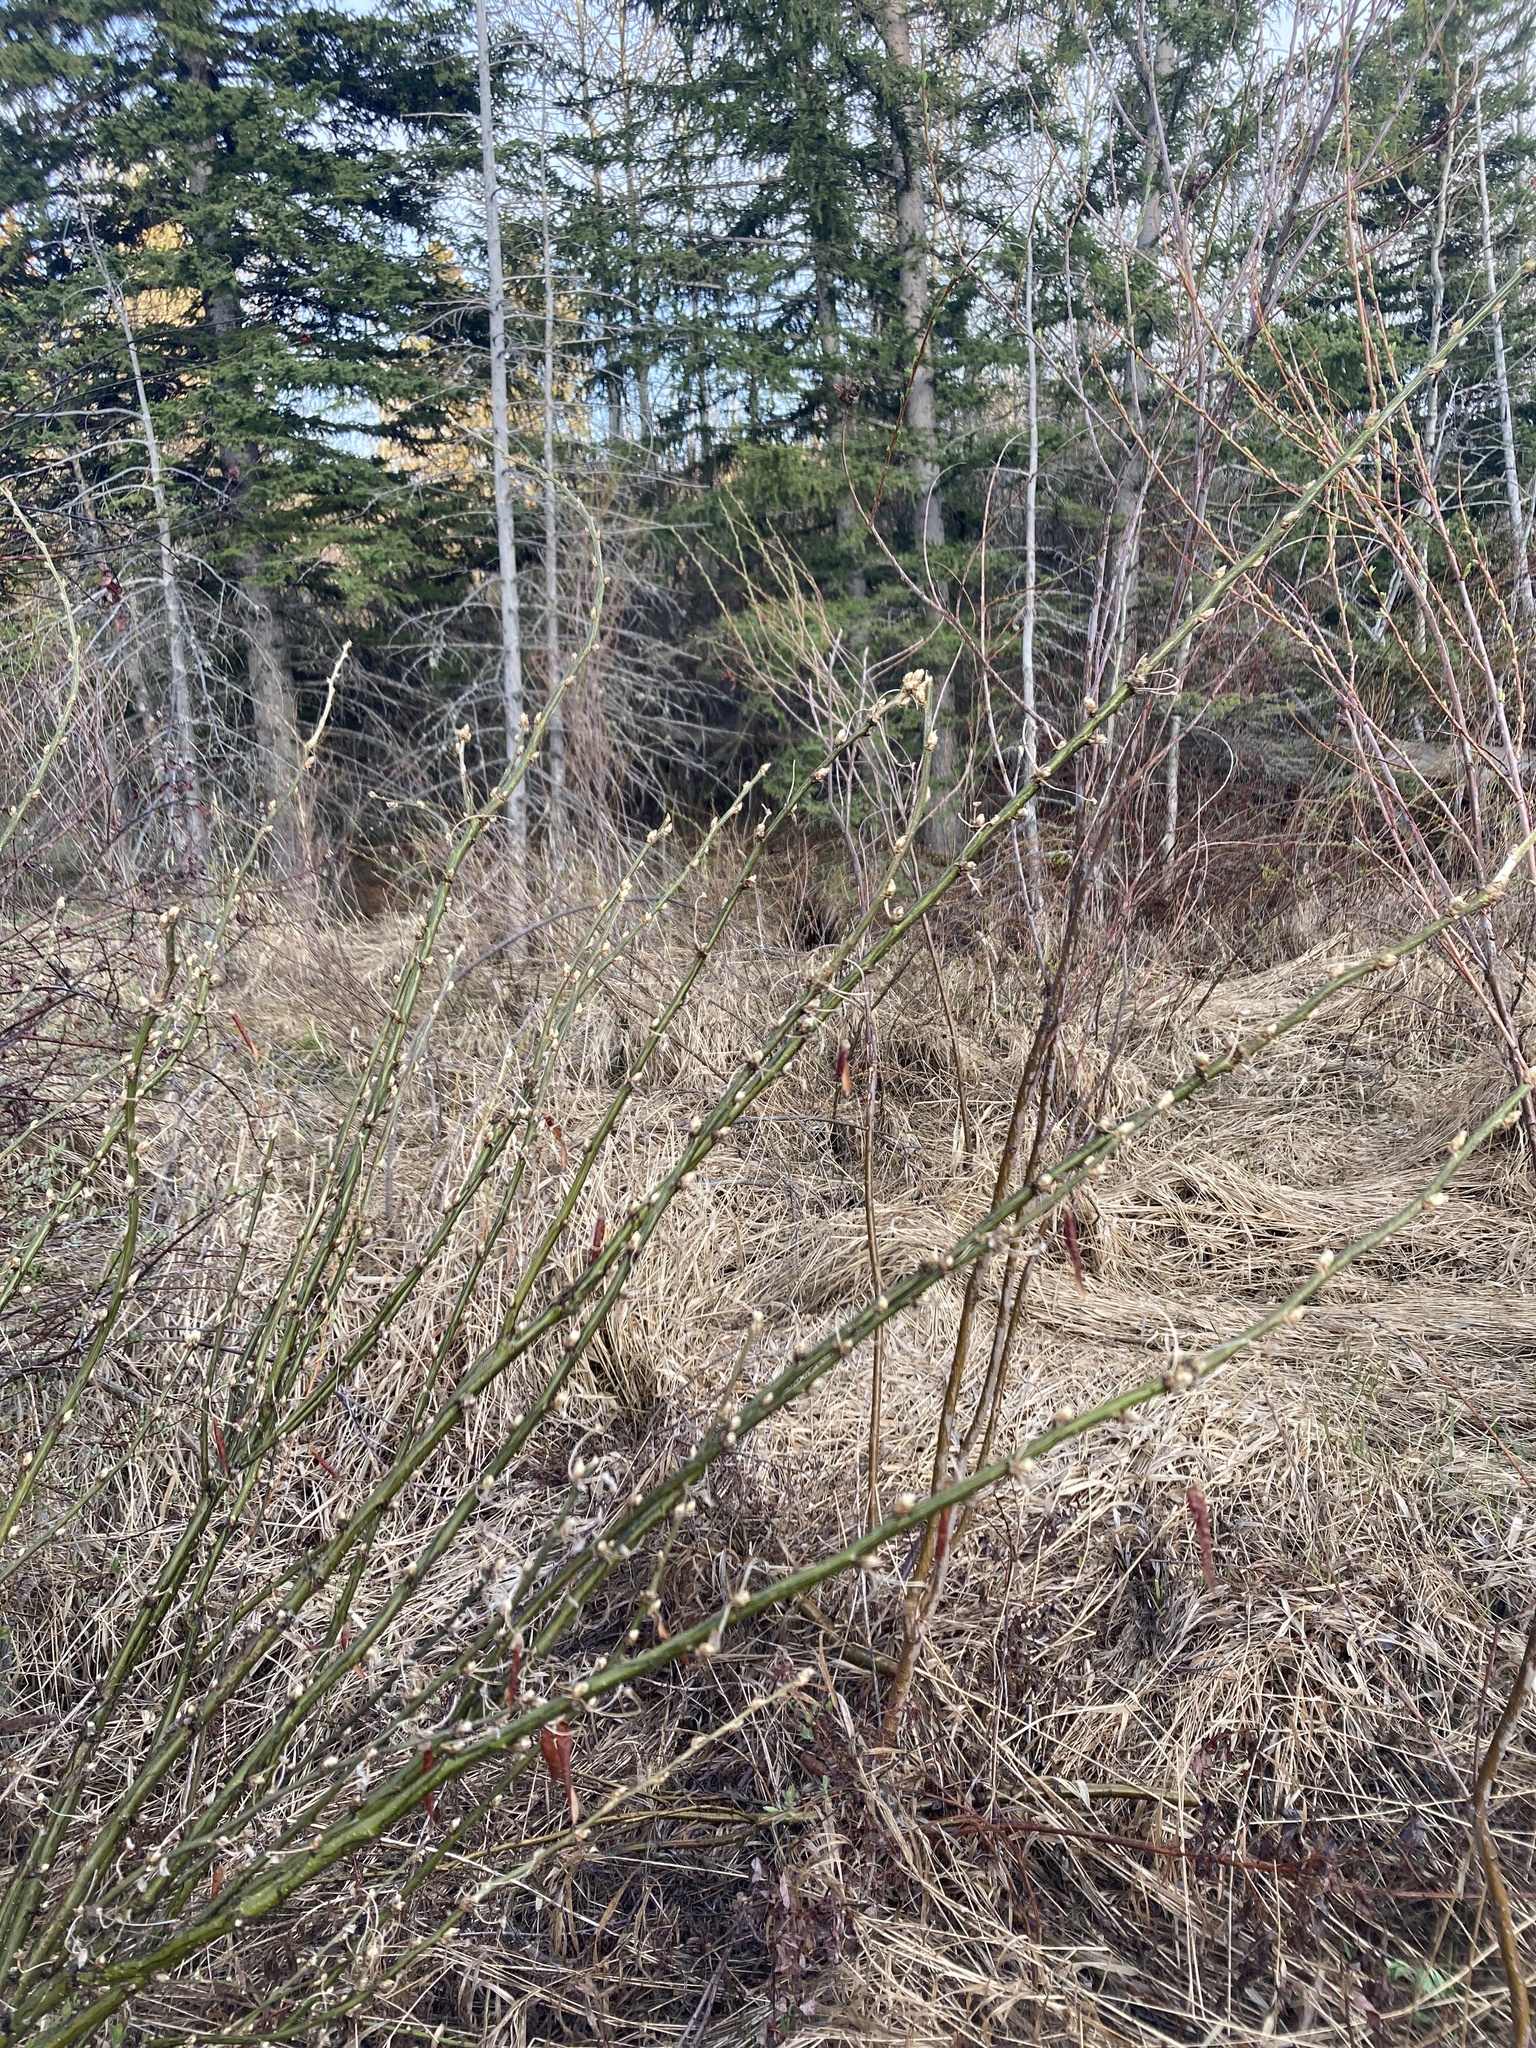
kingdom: Plantae
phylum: Tracheophyta
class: Magnoliopsida
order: Fabales
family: Fabaceae
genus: Caragana
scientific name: Caragana arborescens
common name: Siberian peashrub
